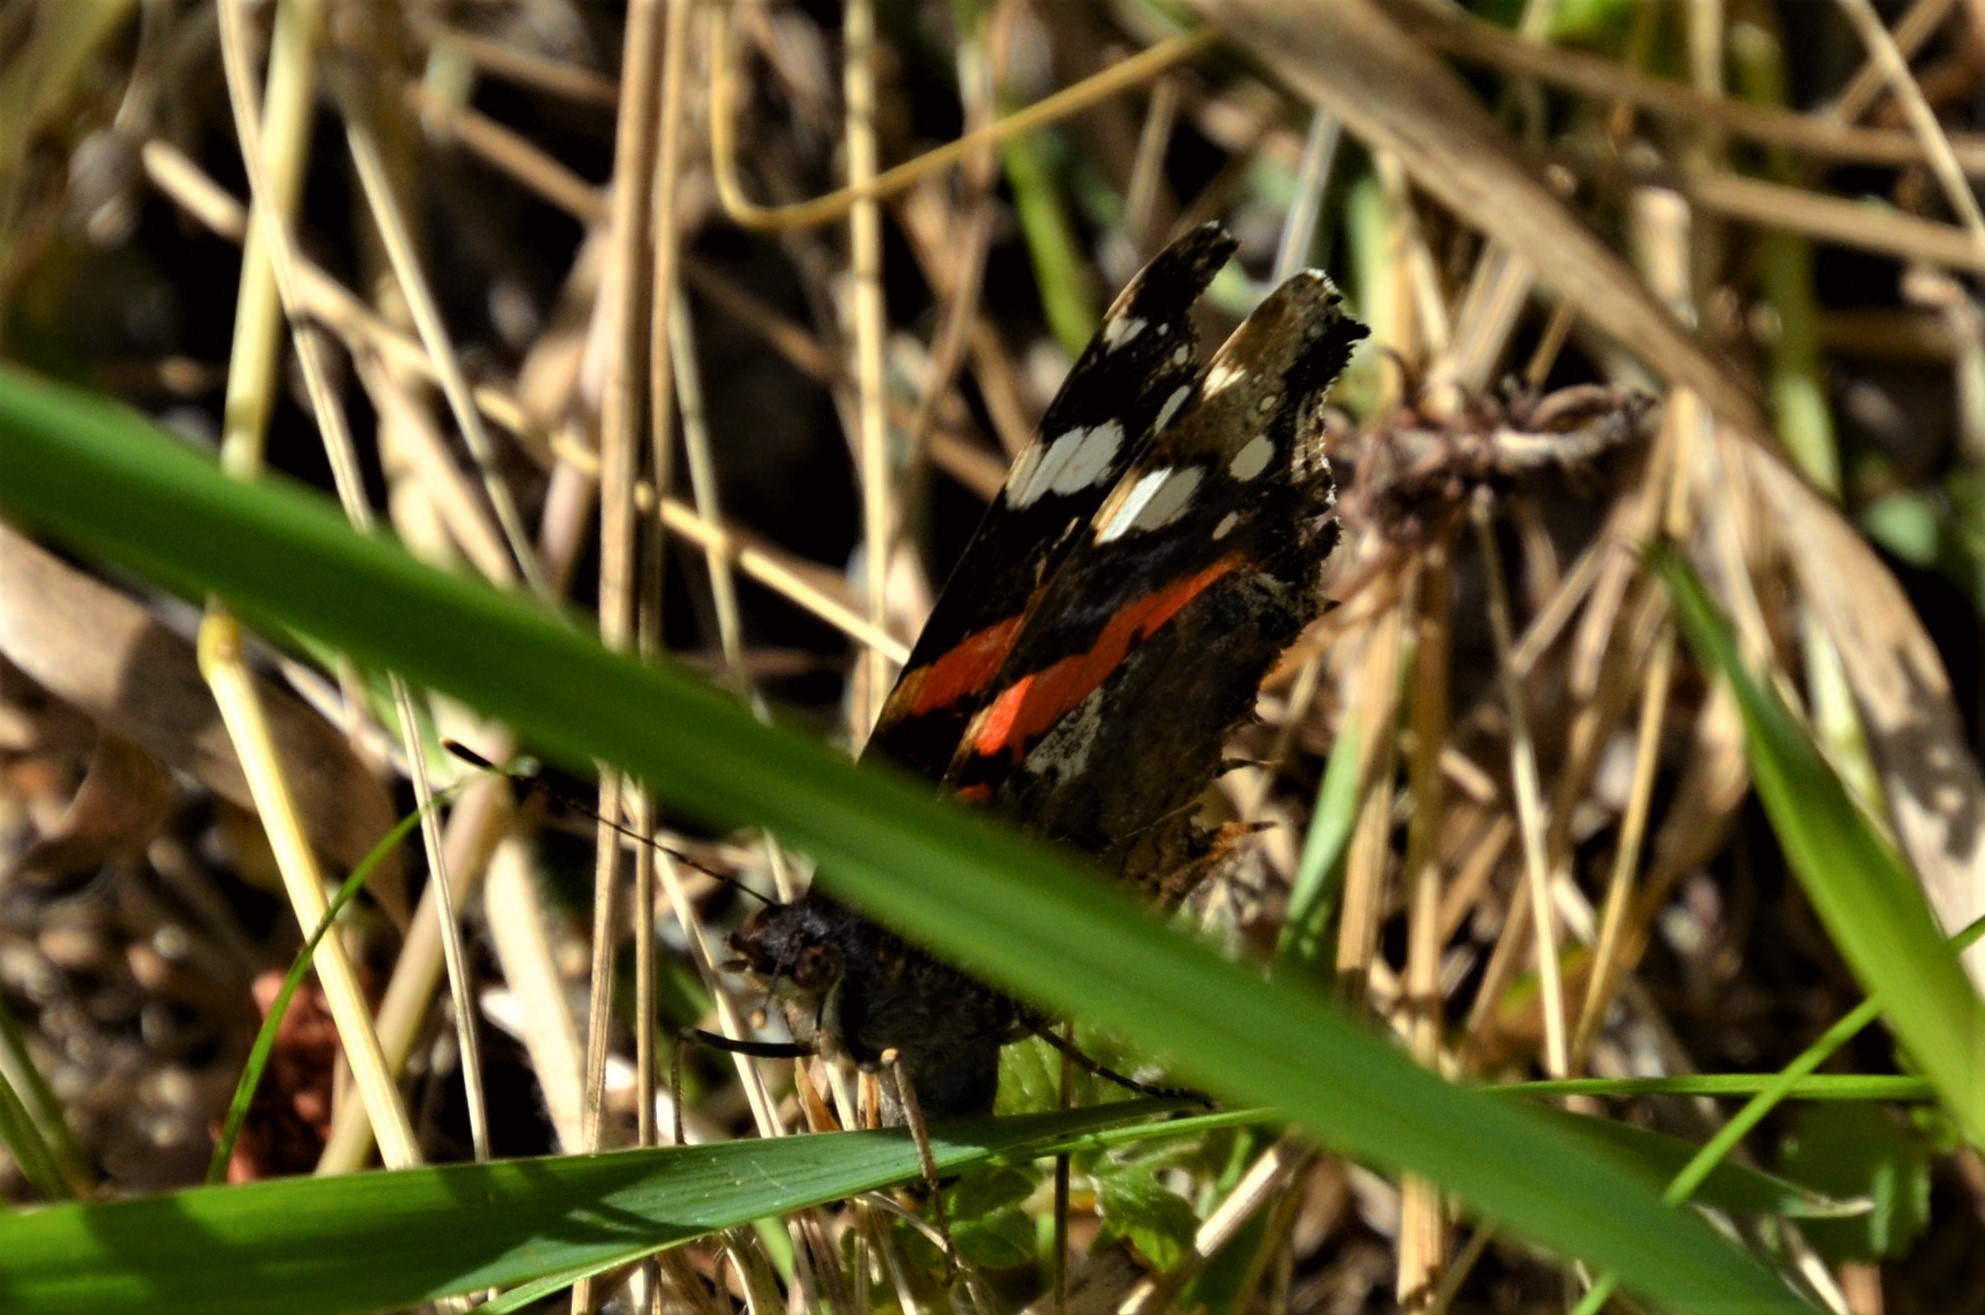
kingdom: Animalia
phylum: Arthropoda
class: Insecta
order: Lepidoptera
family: Nymphalidae
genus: Vanessa
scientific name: Vanessa atalanta
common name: Red admiral
